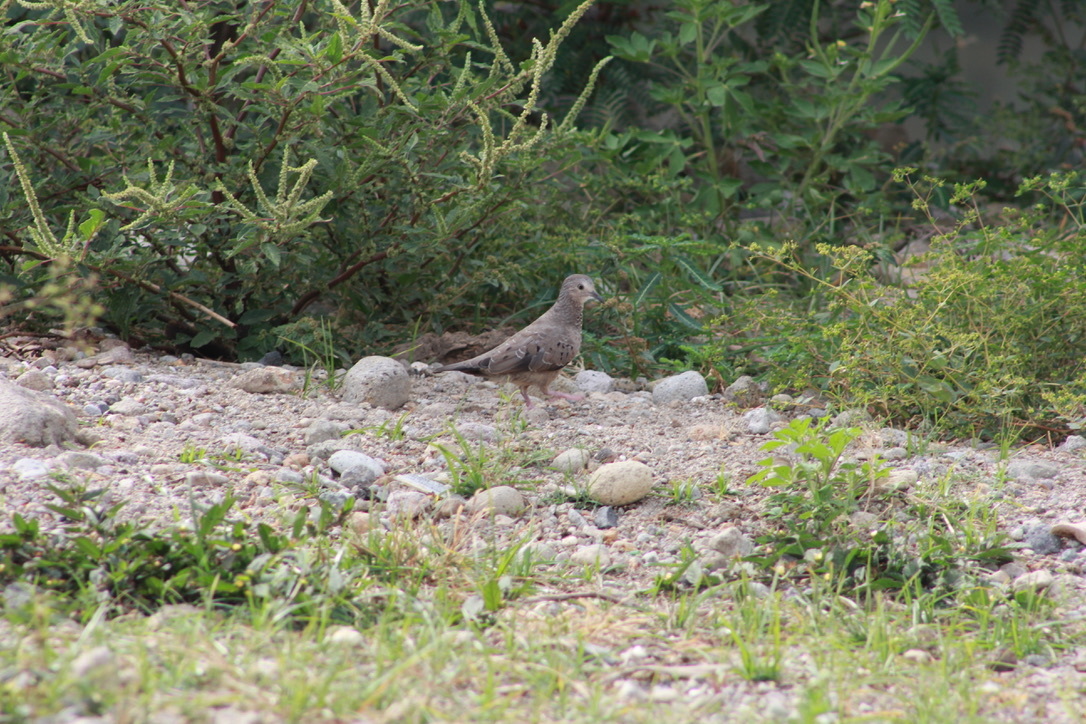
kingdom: Animalia
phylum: Chordata
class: Aves
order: Columbiformes
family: Columbidae
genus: Columbina
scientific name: Columbina passerina
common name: Common ground-dove
